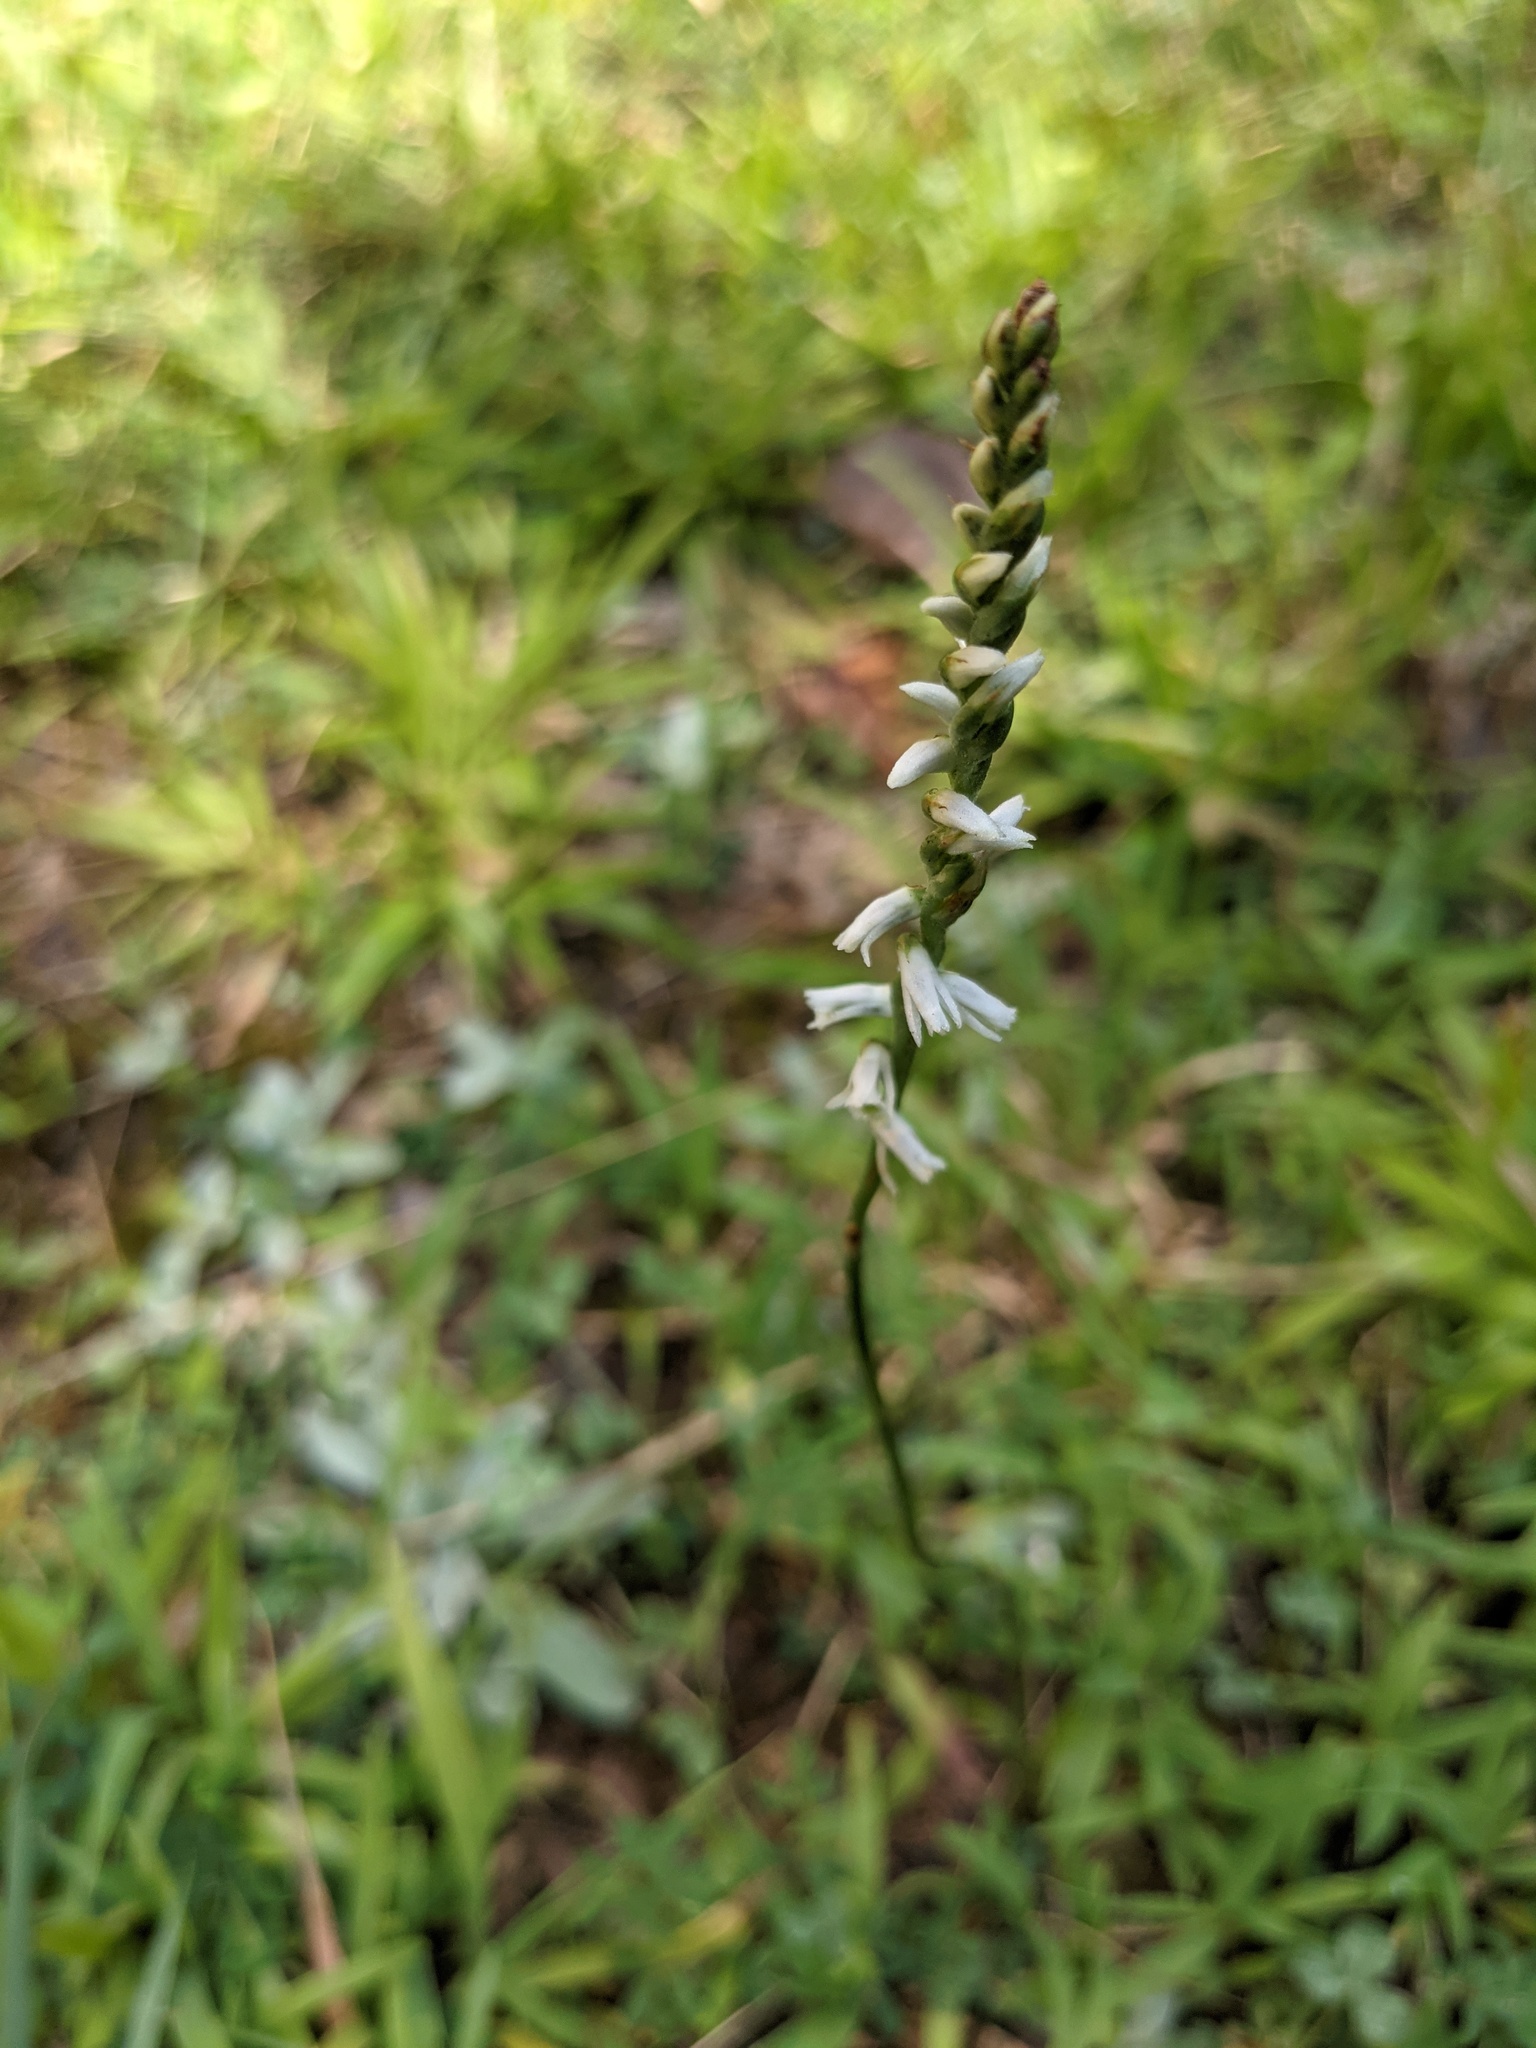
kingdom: Plantae
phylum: Tracheophyta
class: Liliopsida
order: Asparagales
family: Orchidaceae
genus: Spiranthes
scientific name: Spiranthes lacera
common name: Northern slender ladies'-tresses
